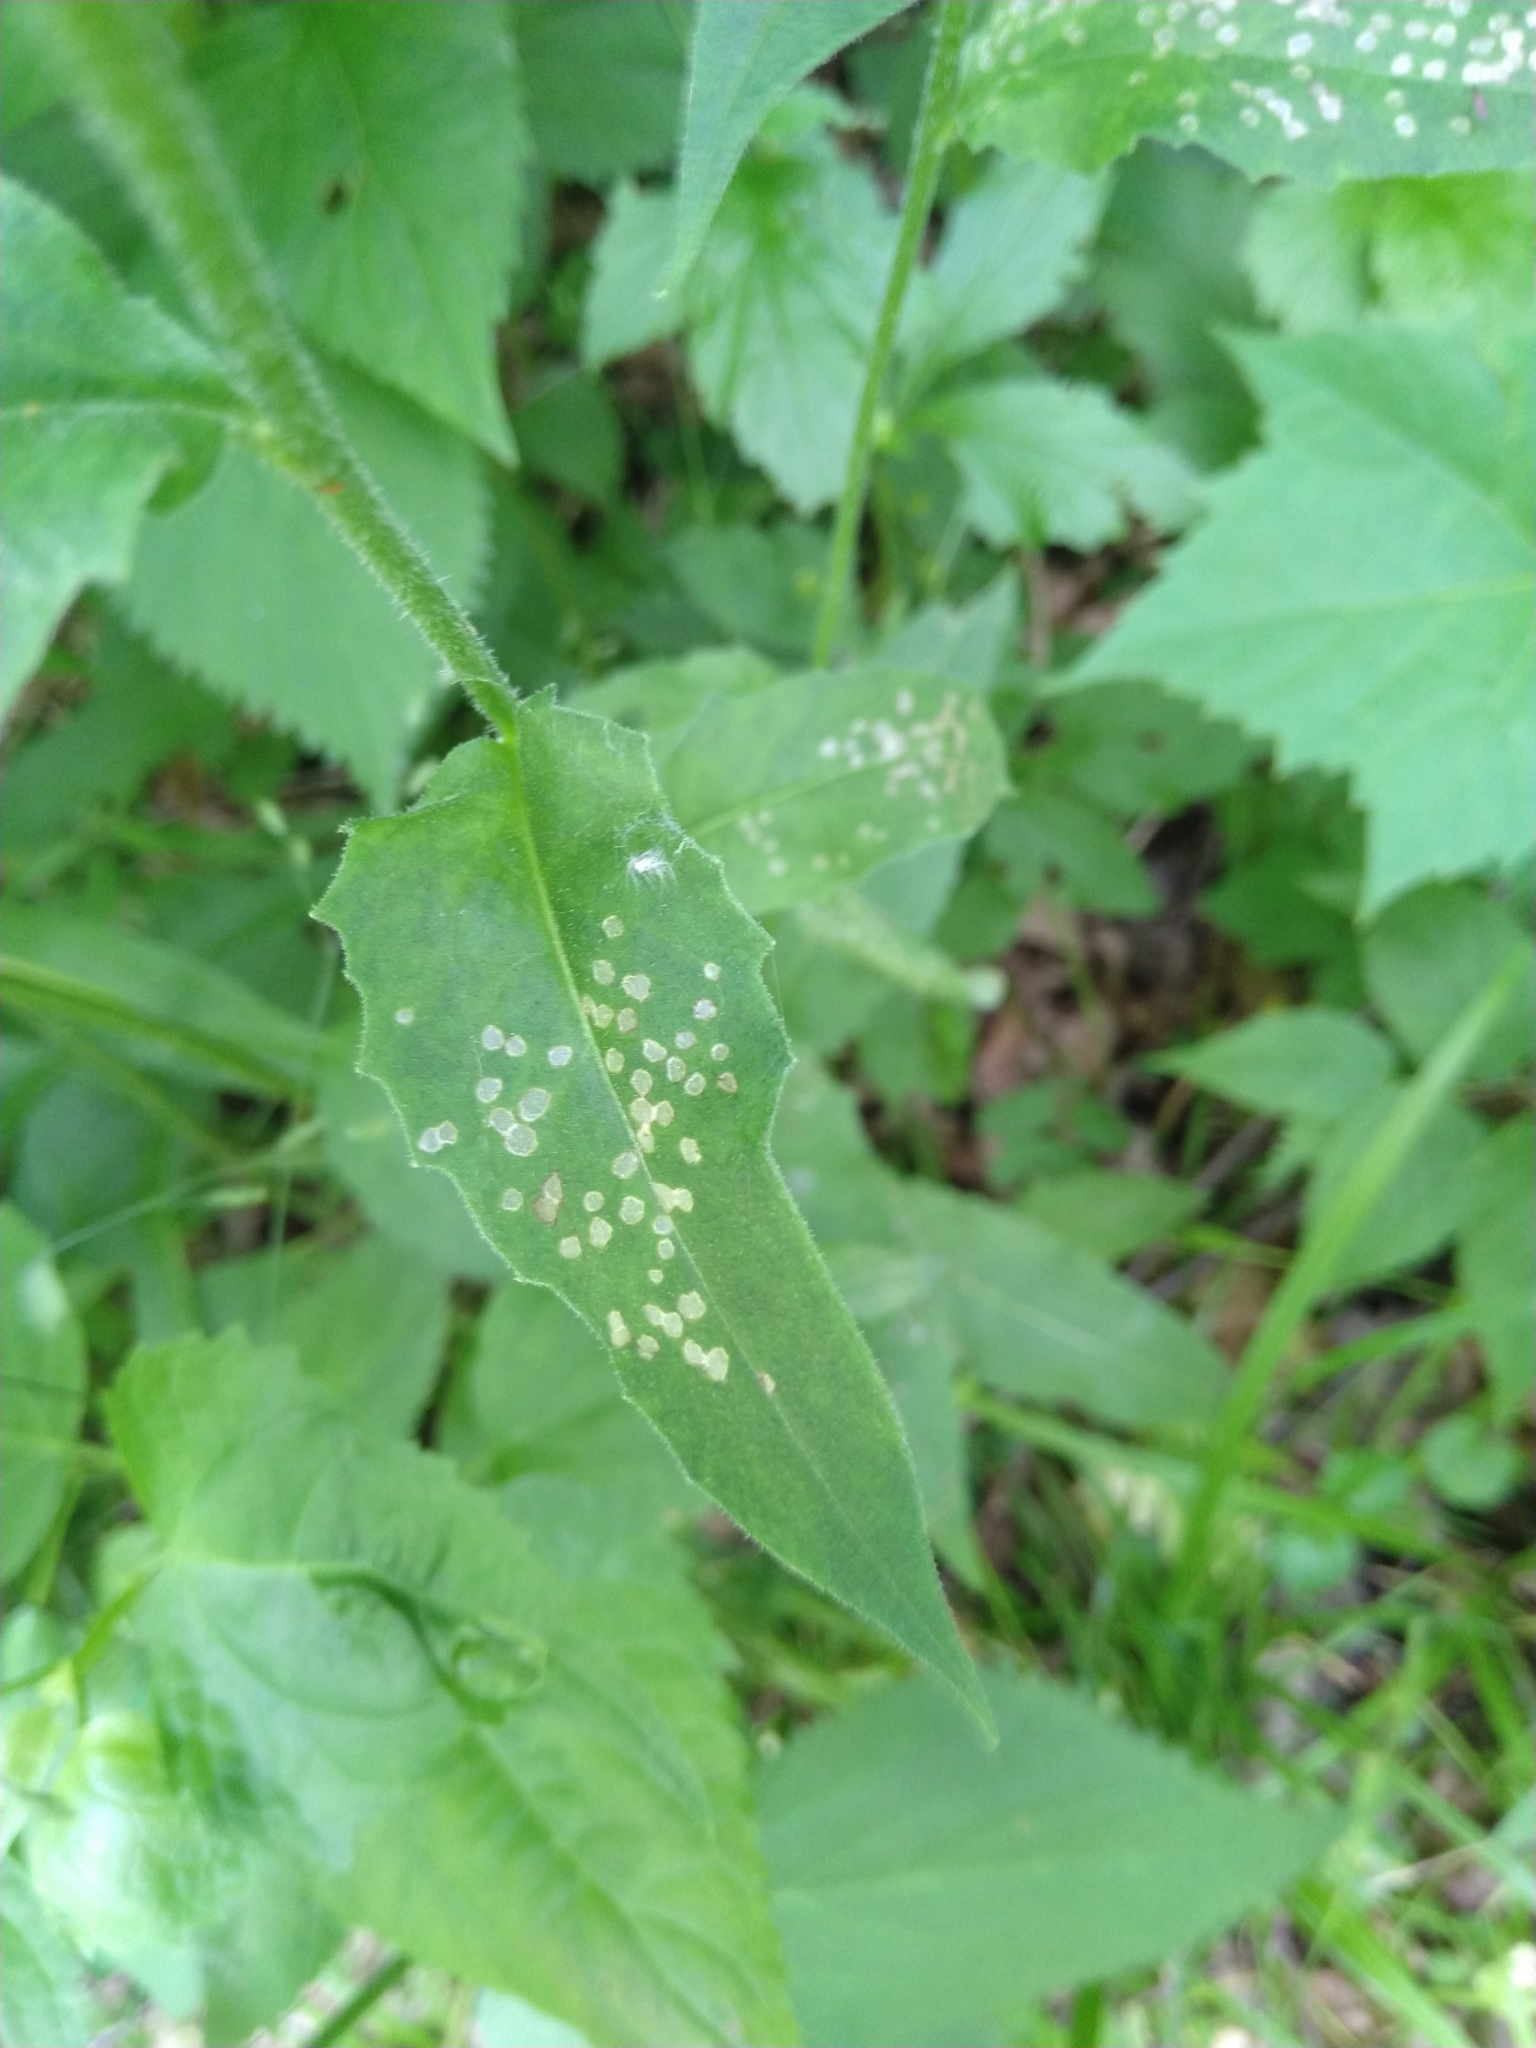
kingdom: Plantae
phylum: Tracheophyta
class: Magnoliopsida
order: Brassicales
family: Brassicaceae
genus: Hesperis
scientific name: Hesperis matronalis
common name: Dame's-violet
